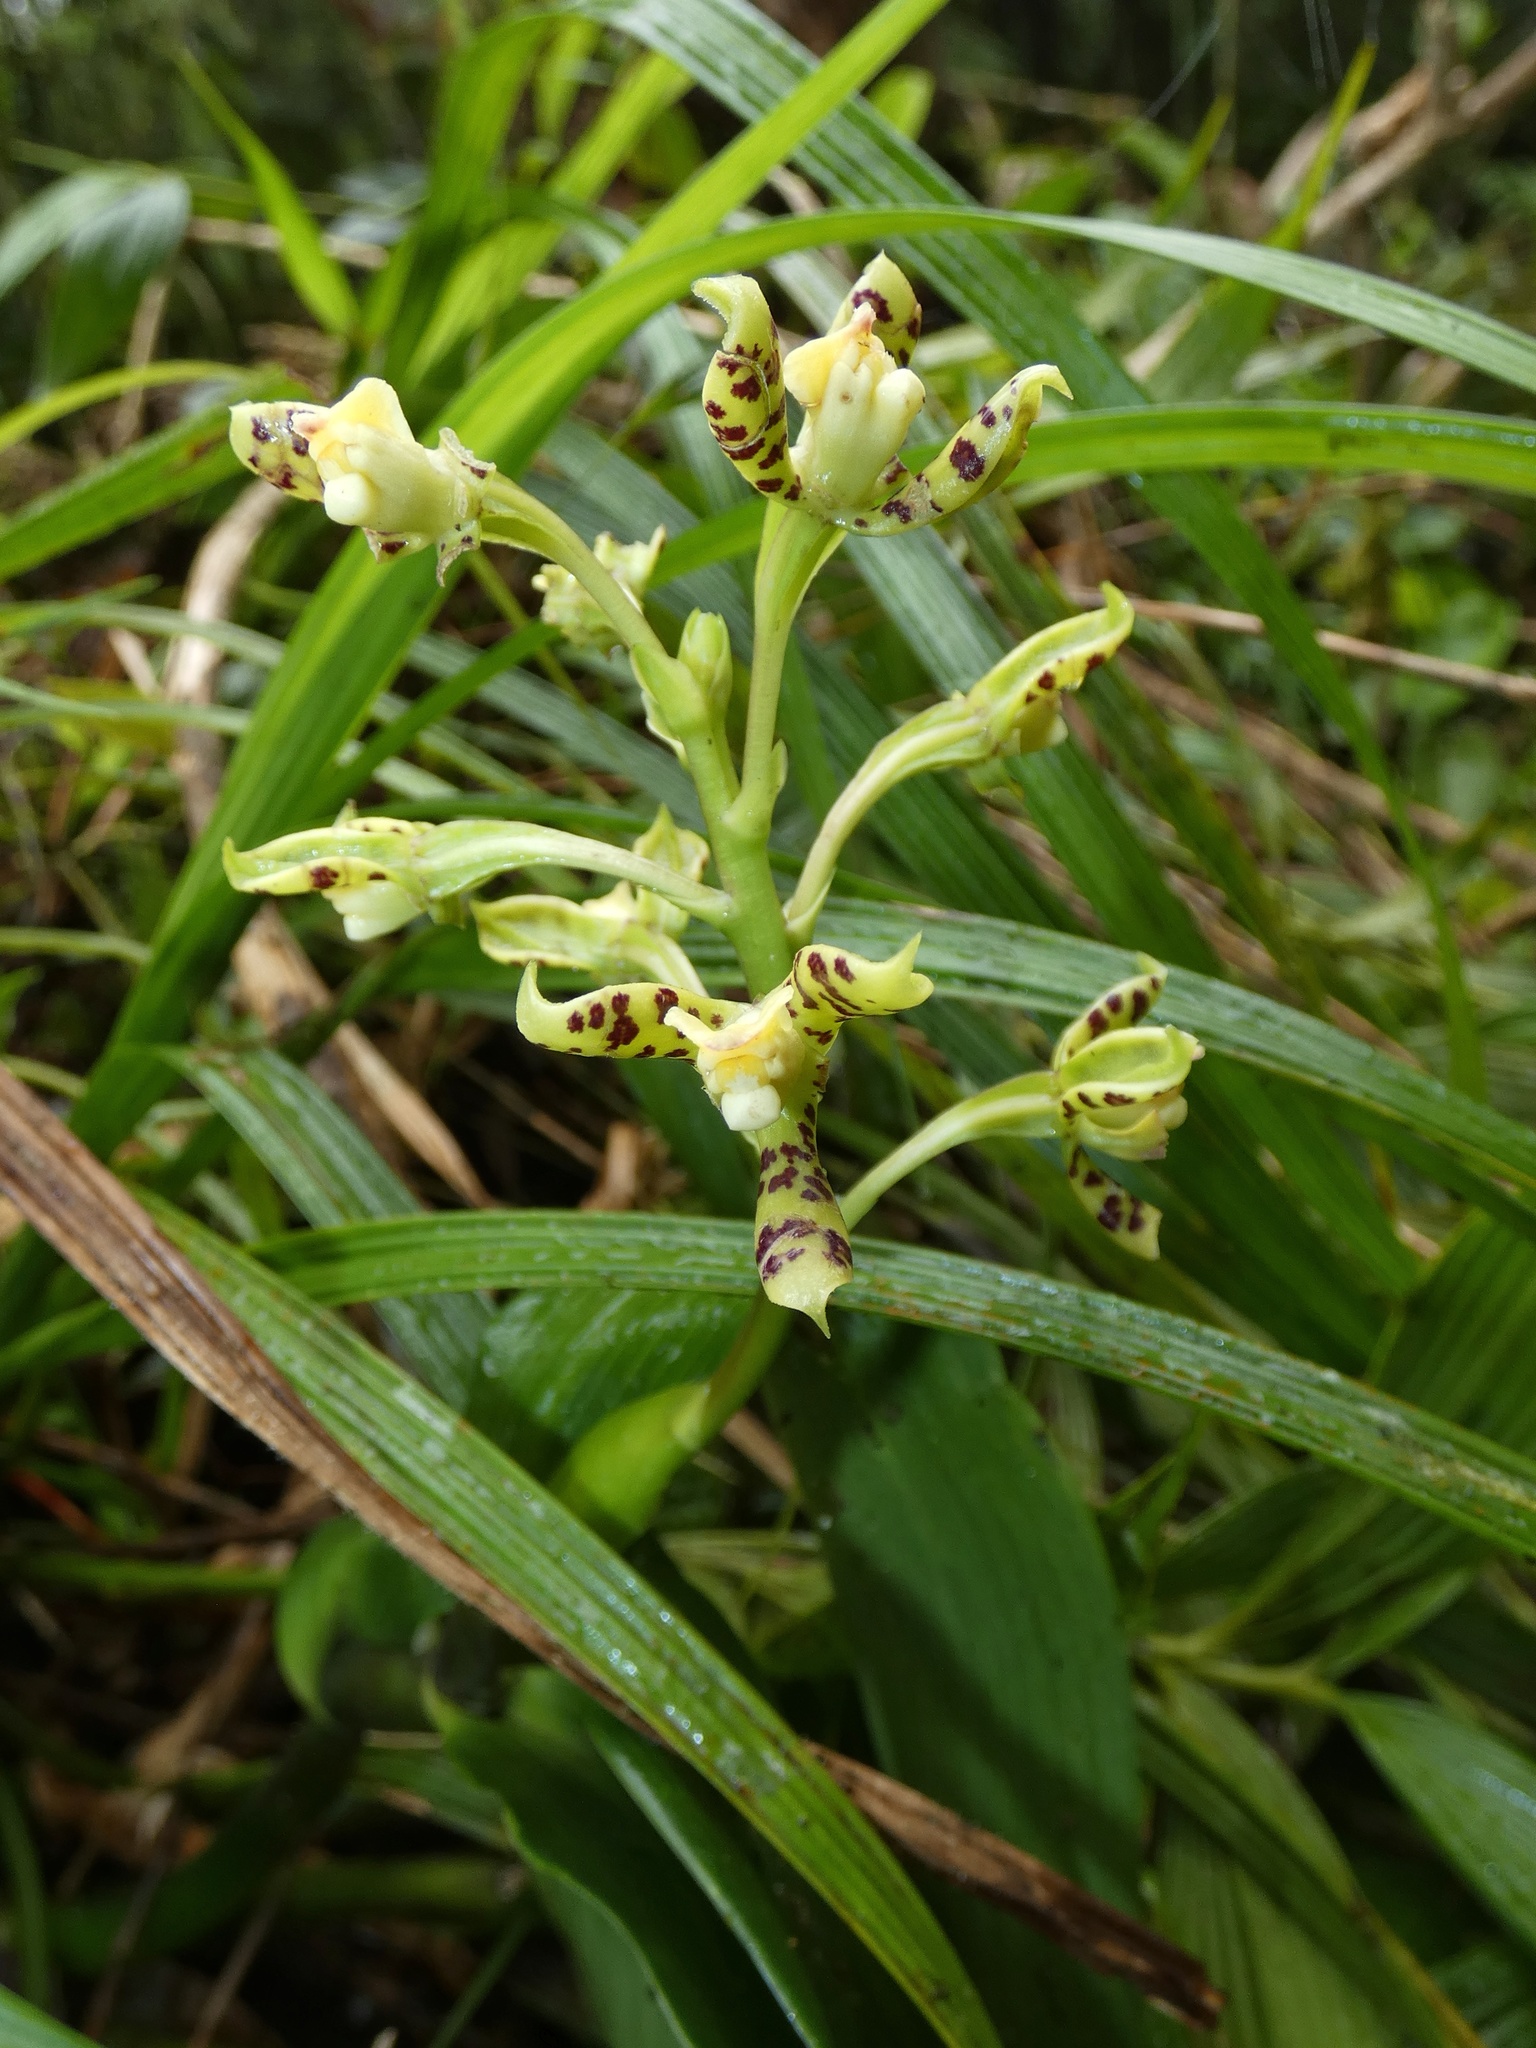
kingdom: Plantae
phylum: Tracheophyta
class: Liliopsida
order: Asparagales
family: Orchidaceae
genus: Prosthechea
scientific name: Prosthechea crassilabia
